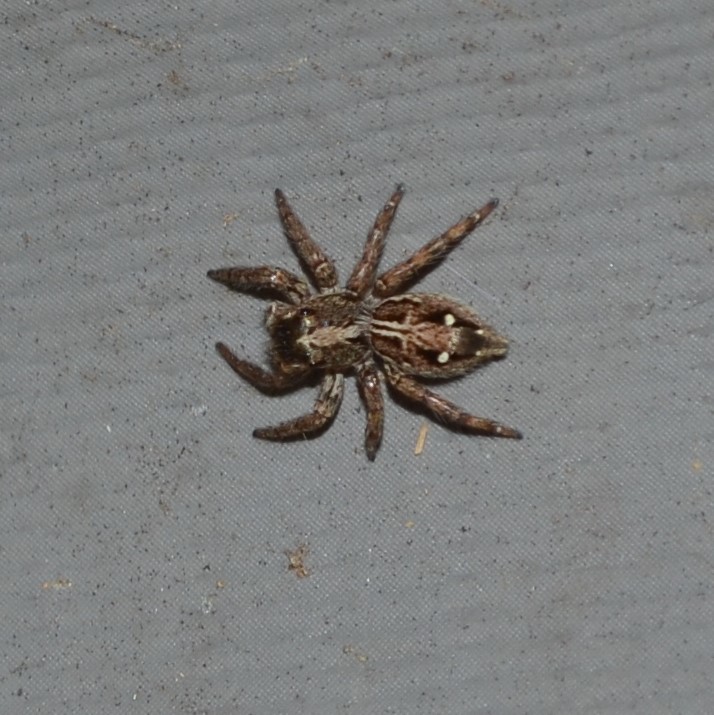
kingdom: Animalia
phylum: Arthropoda
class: Arachnida
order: Araneae
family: Salticidae
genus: Plexippus
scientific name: Plexippus paykulli
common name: Pantropical jumper
